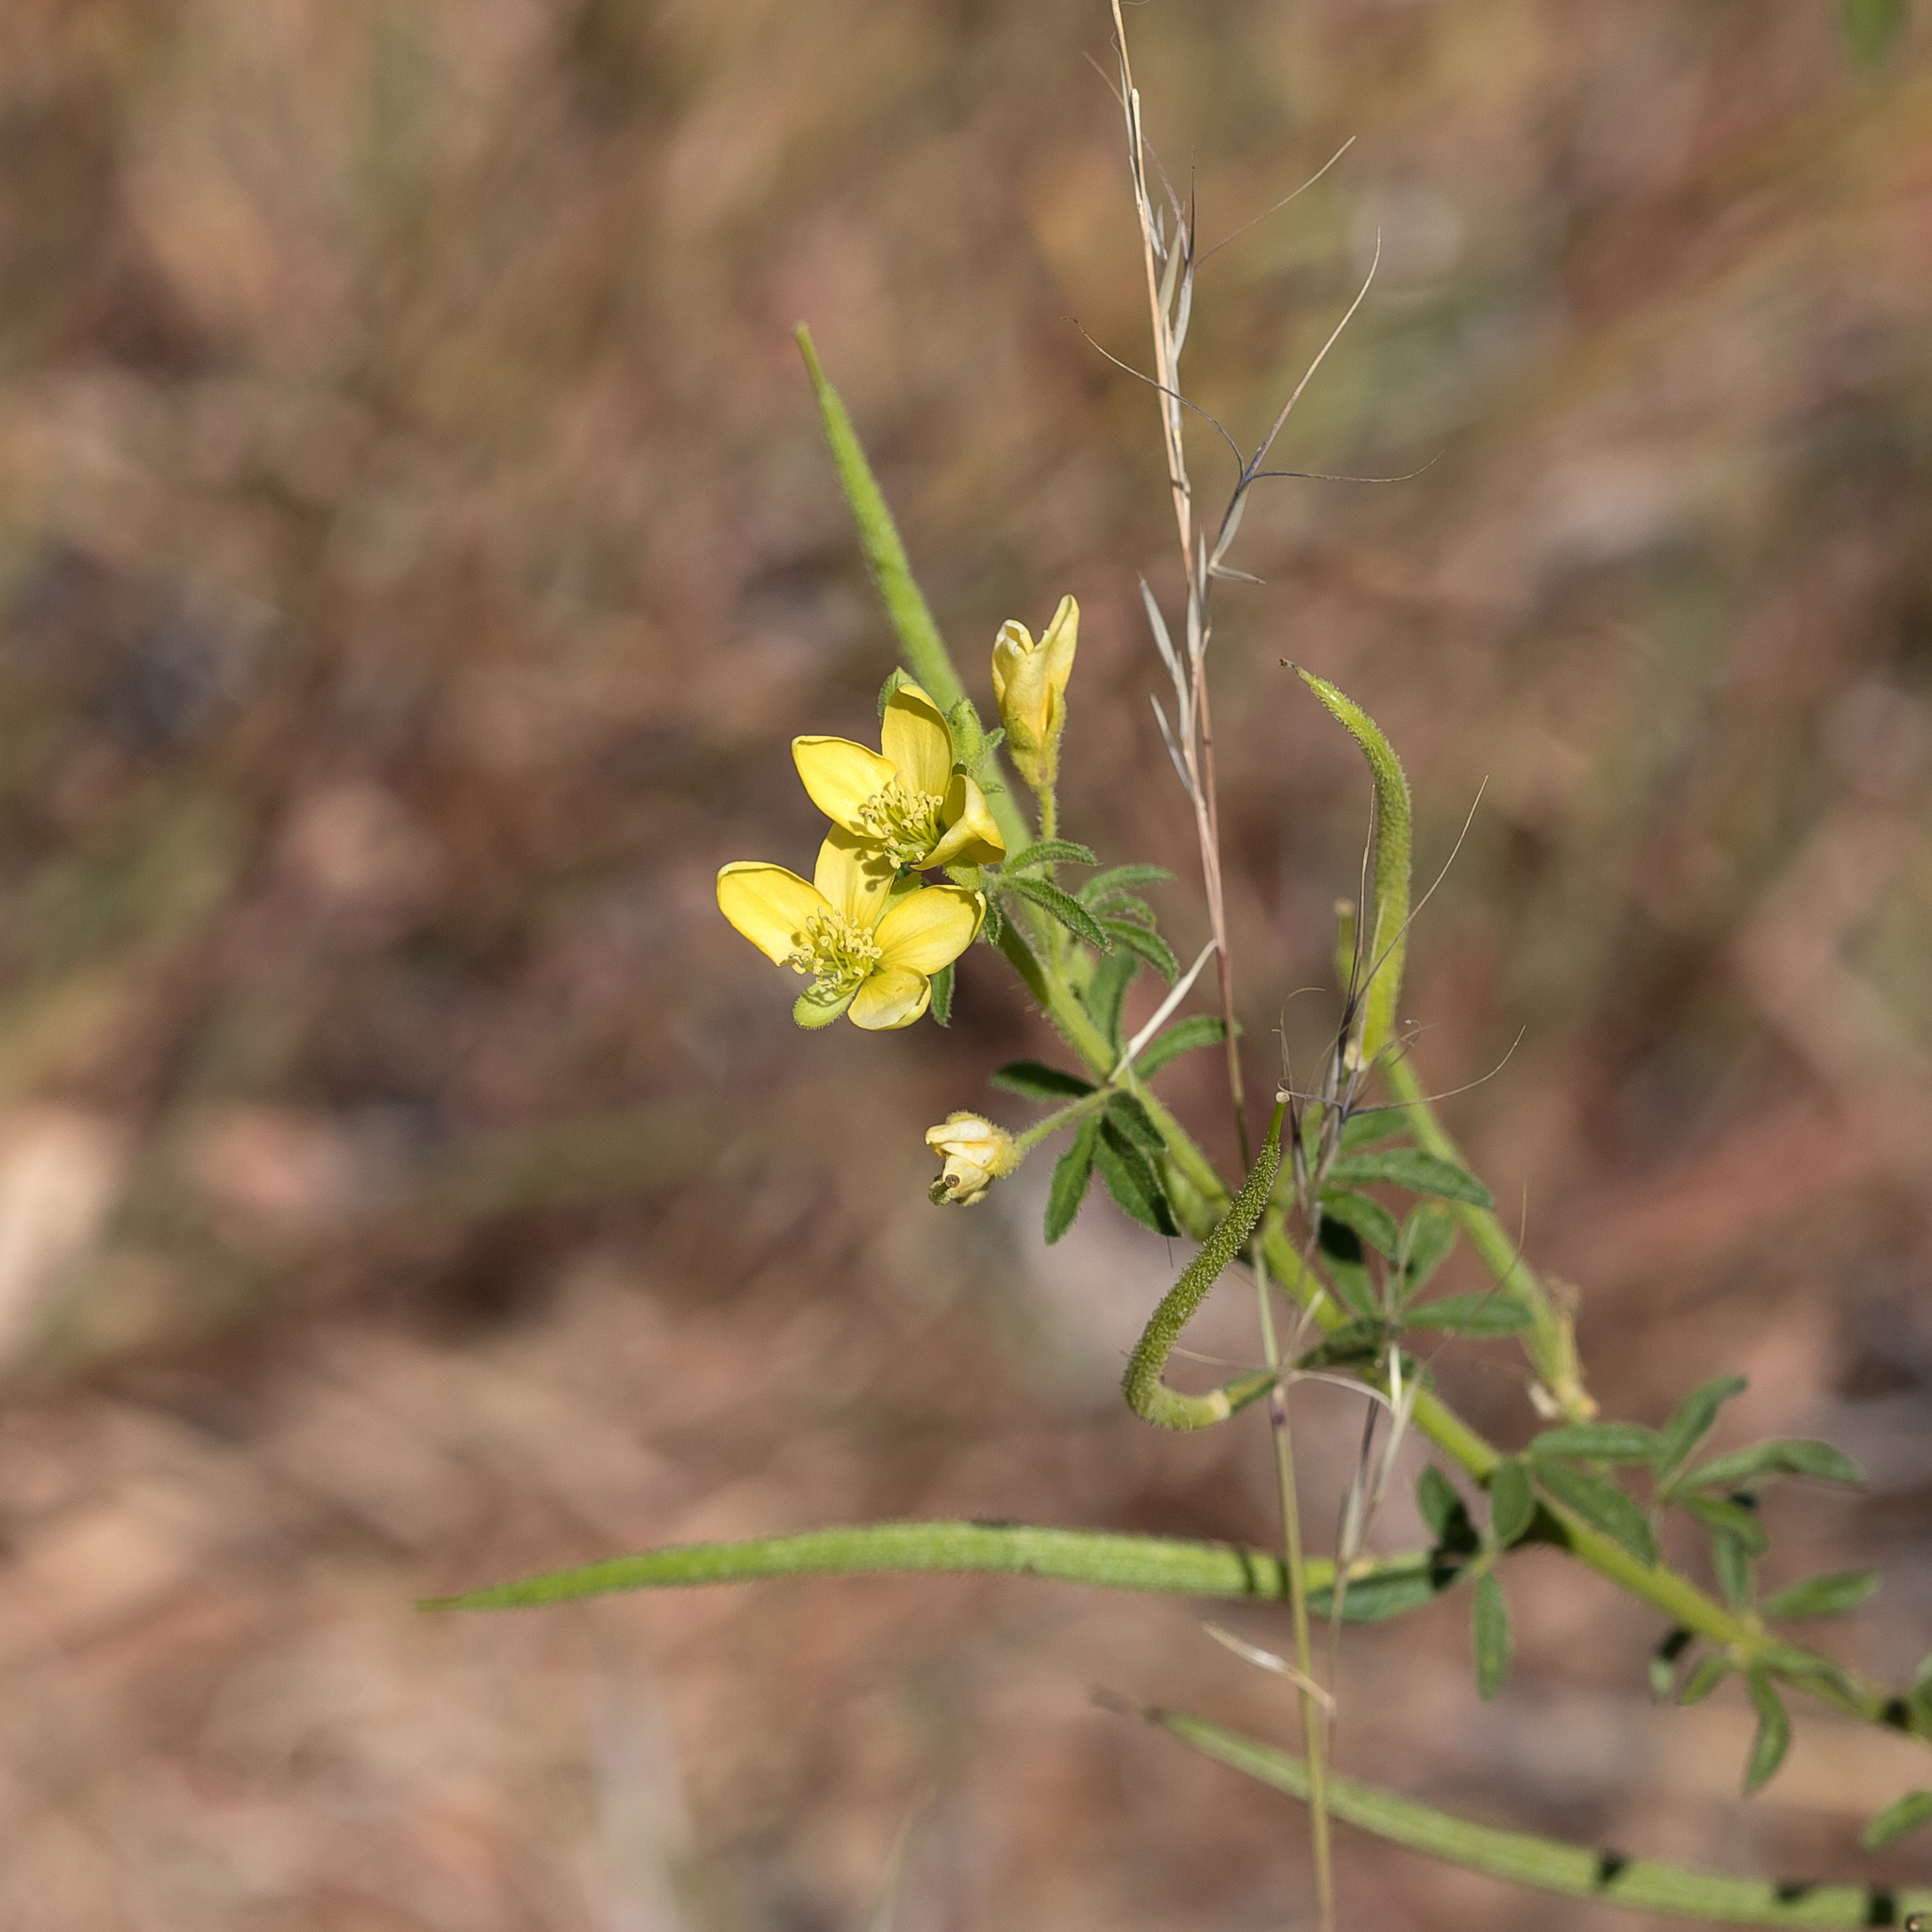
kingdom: Plantae
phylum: Tracheophyta
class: Magnoliopsida
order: Brassicales
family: Cleomaceae
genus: Arivela
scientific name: Arivela viscosa
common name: Asian spiderflower
